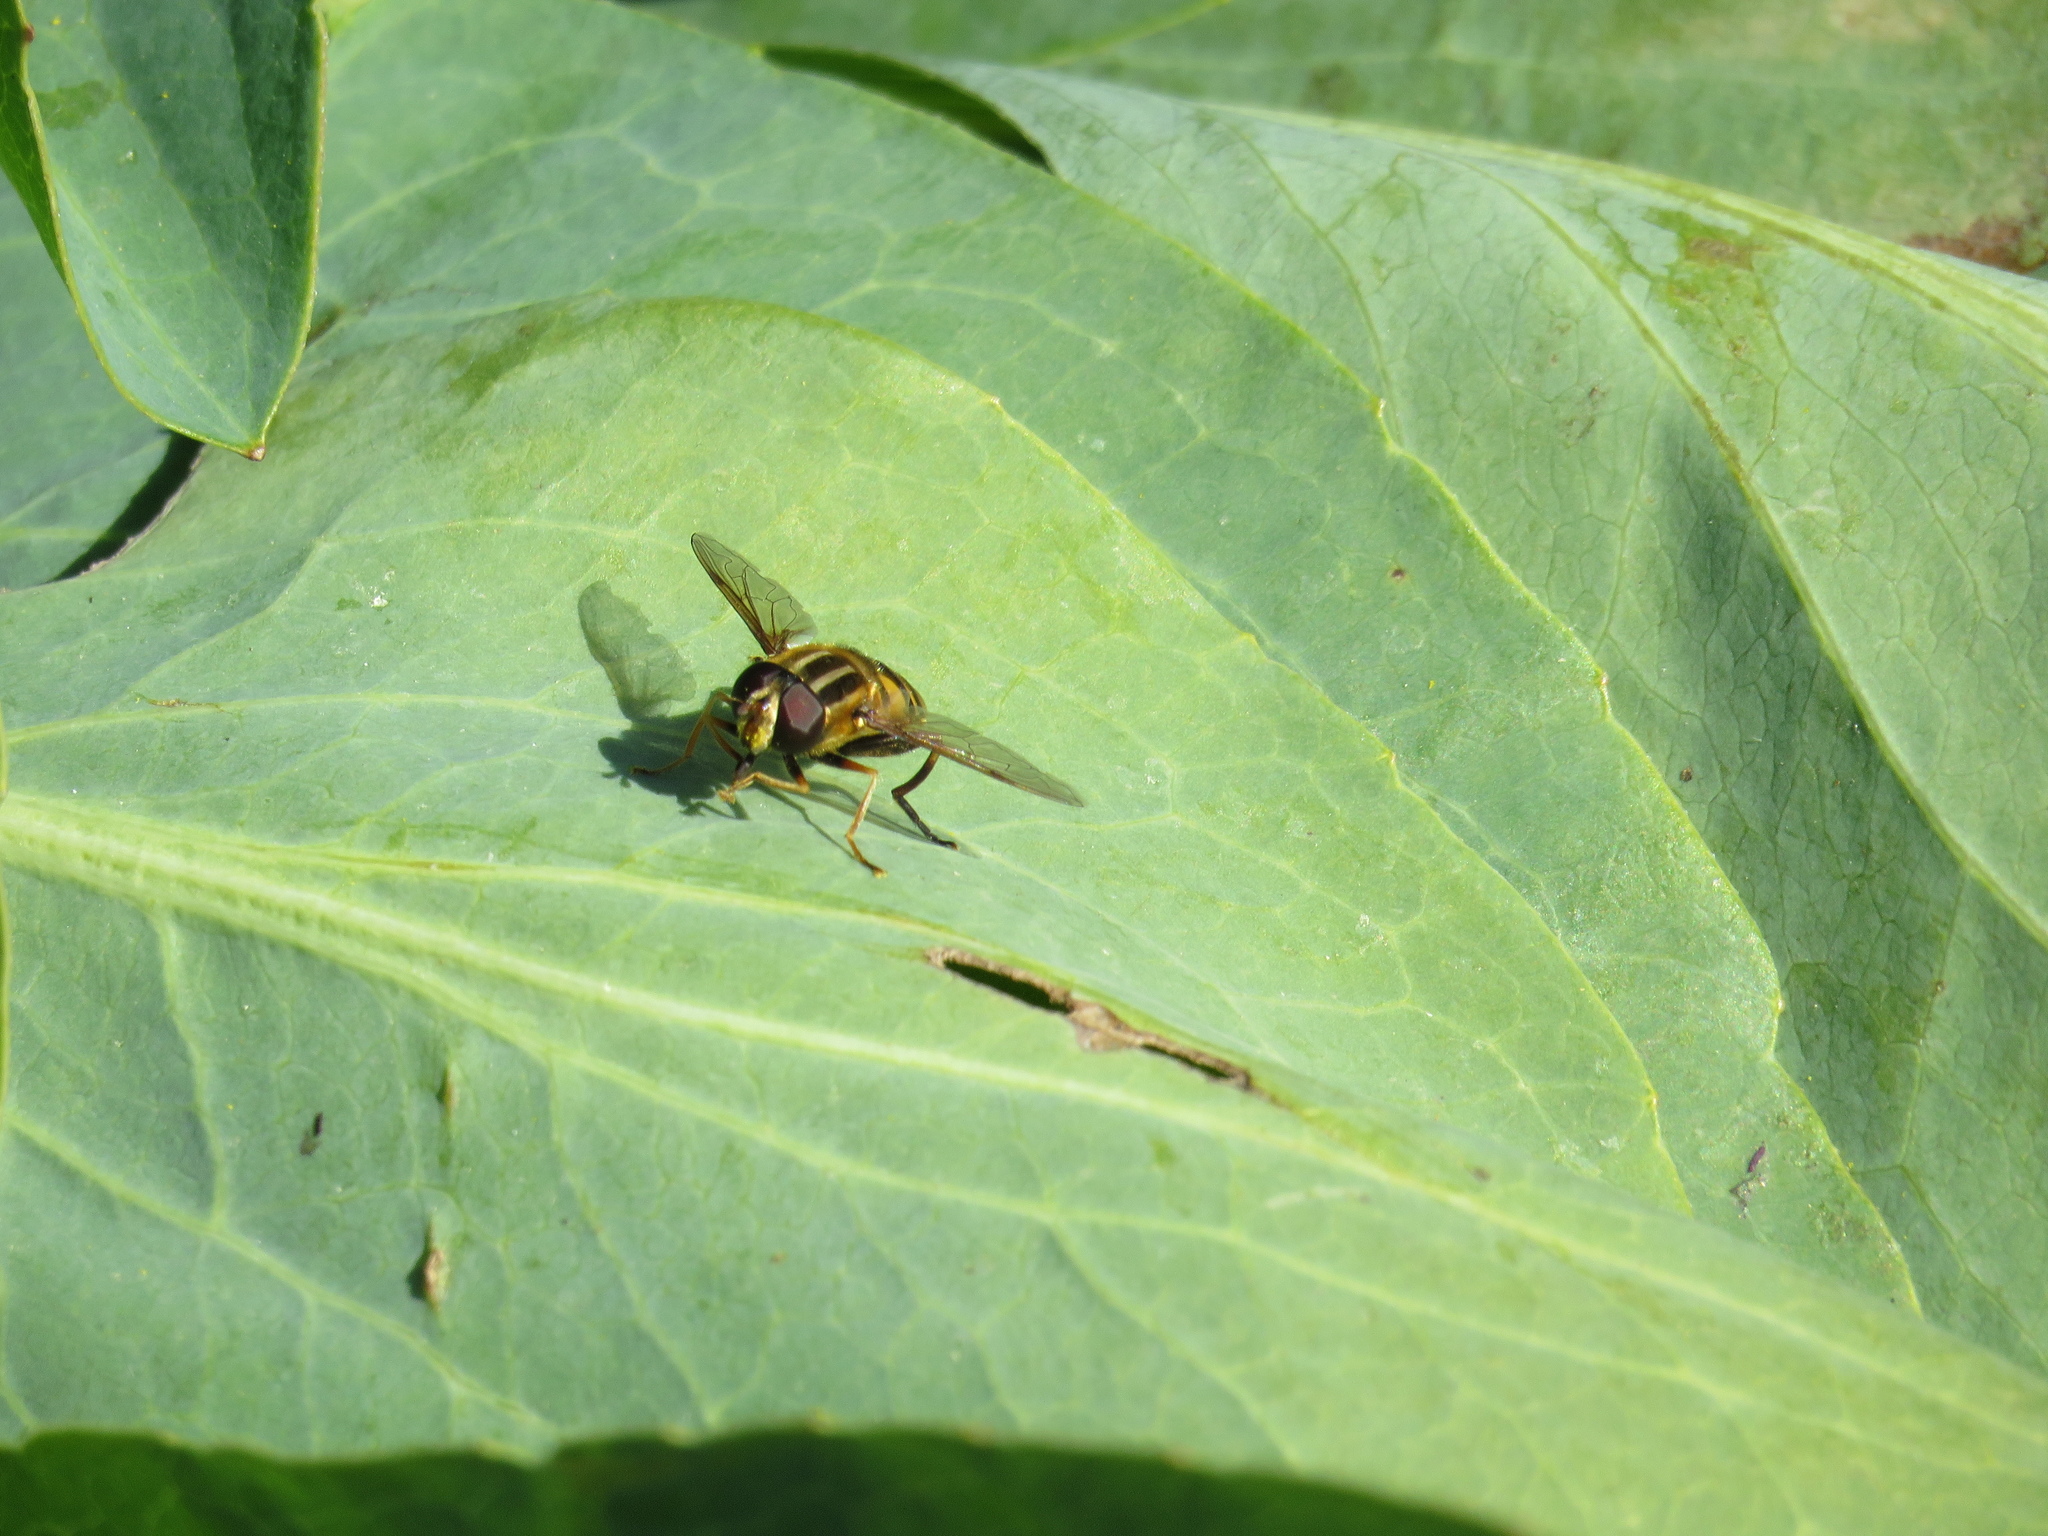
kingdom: Animalia
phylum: Arthropoda
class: Insecta
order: Diptera
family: Syrphidae
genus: Helophilus
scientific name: Helophilus fasciatus
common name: Narrow-headed marsh fly
